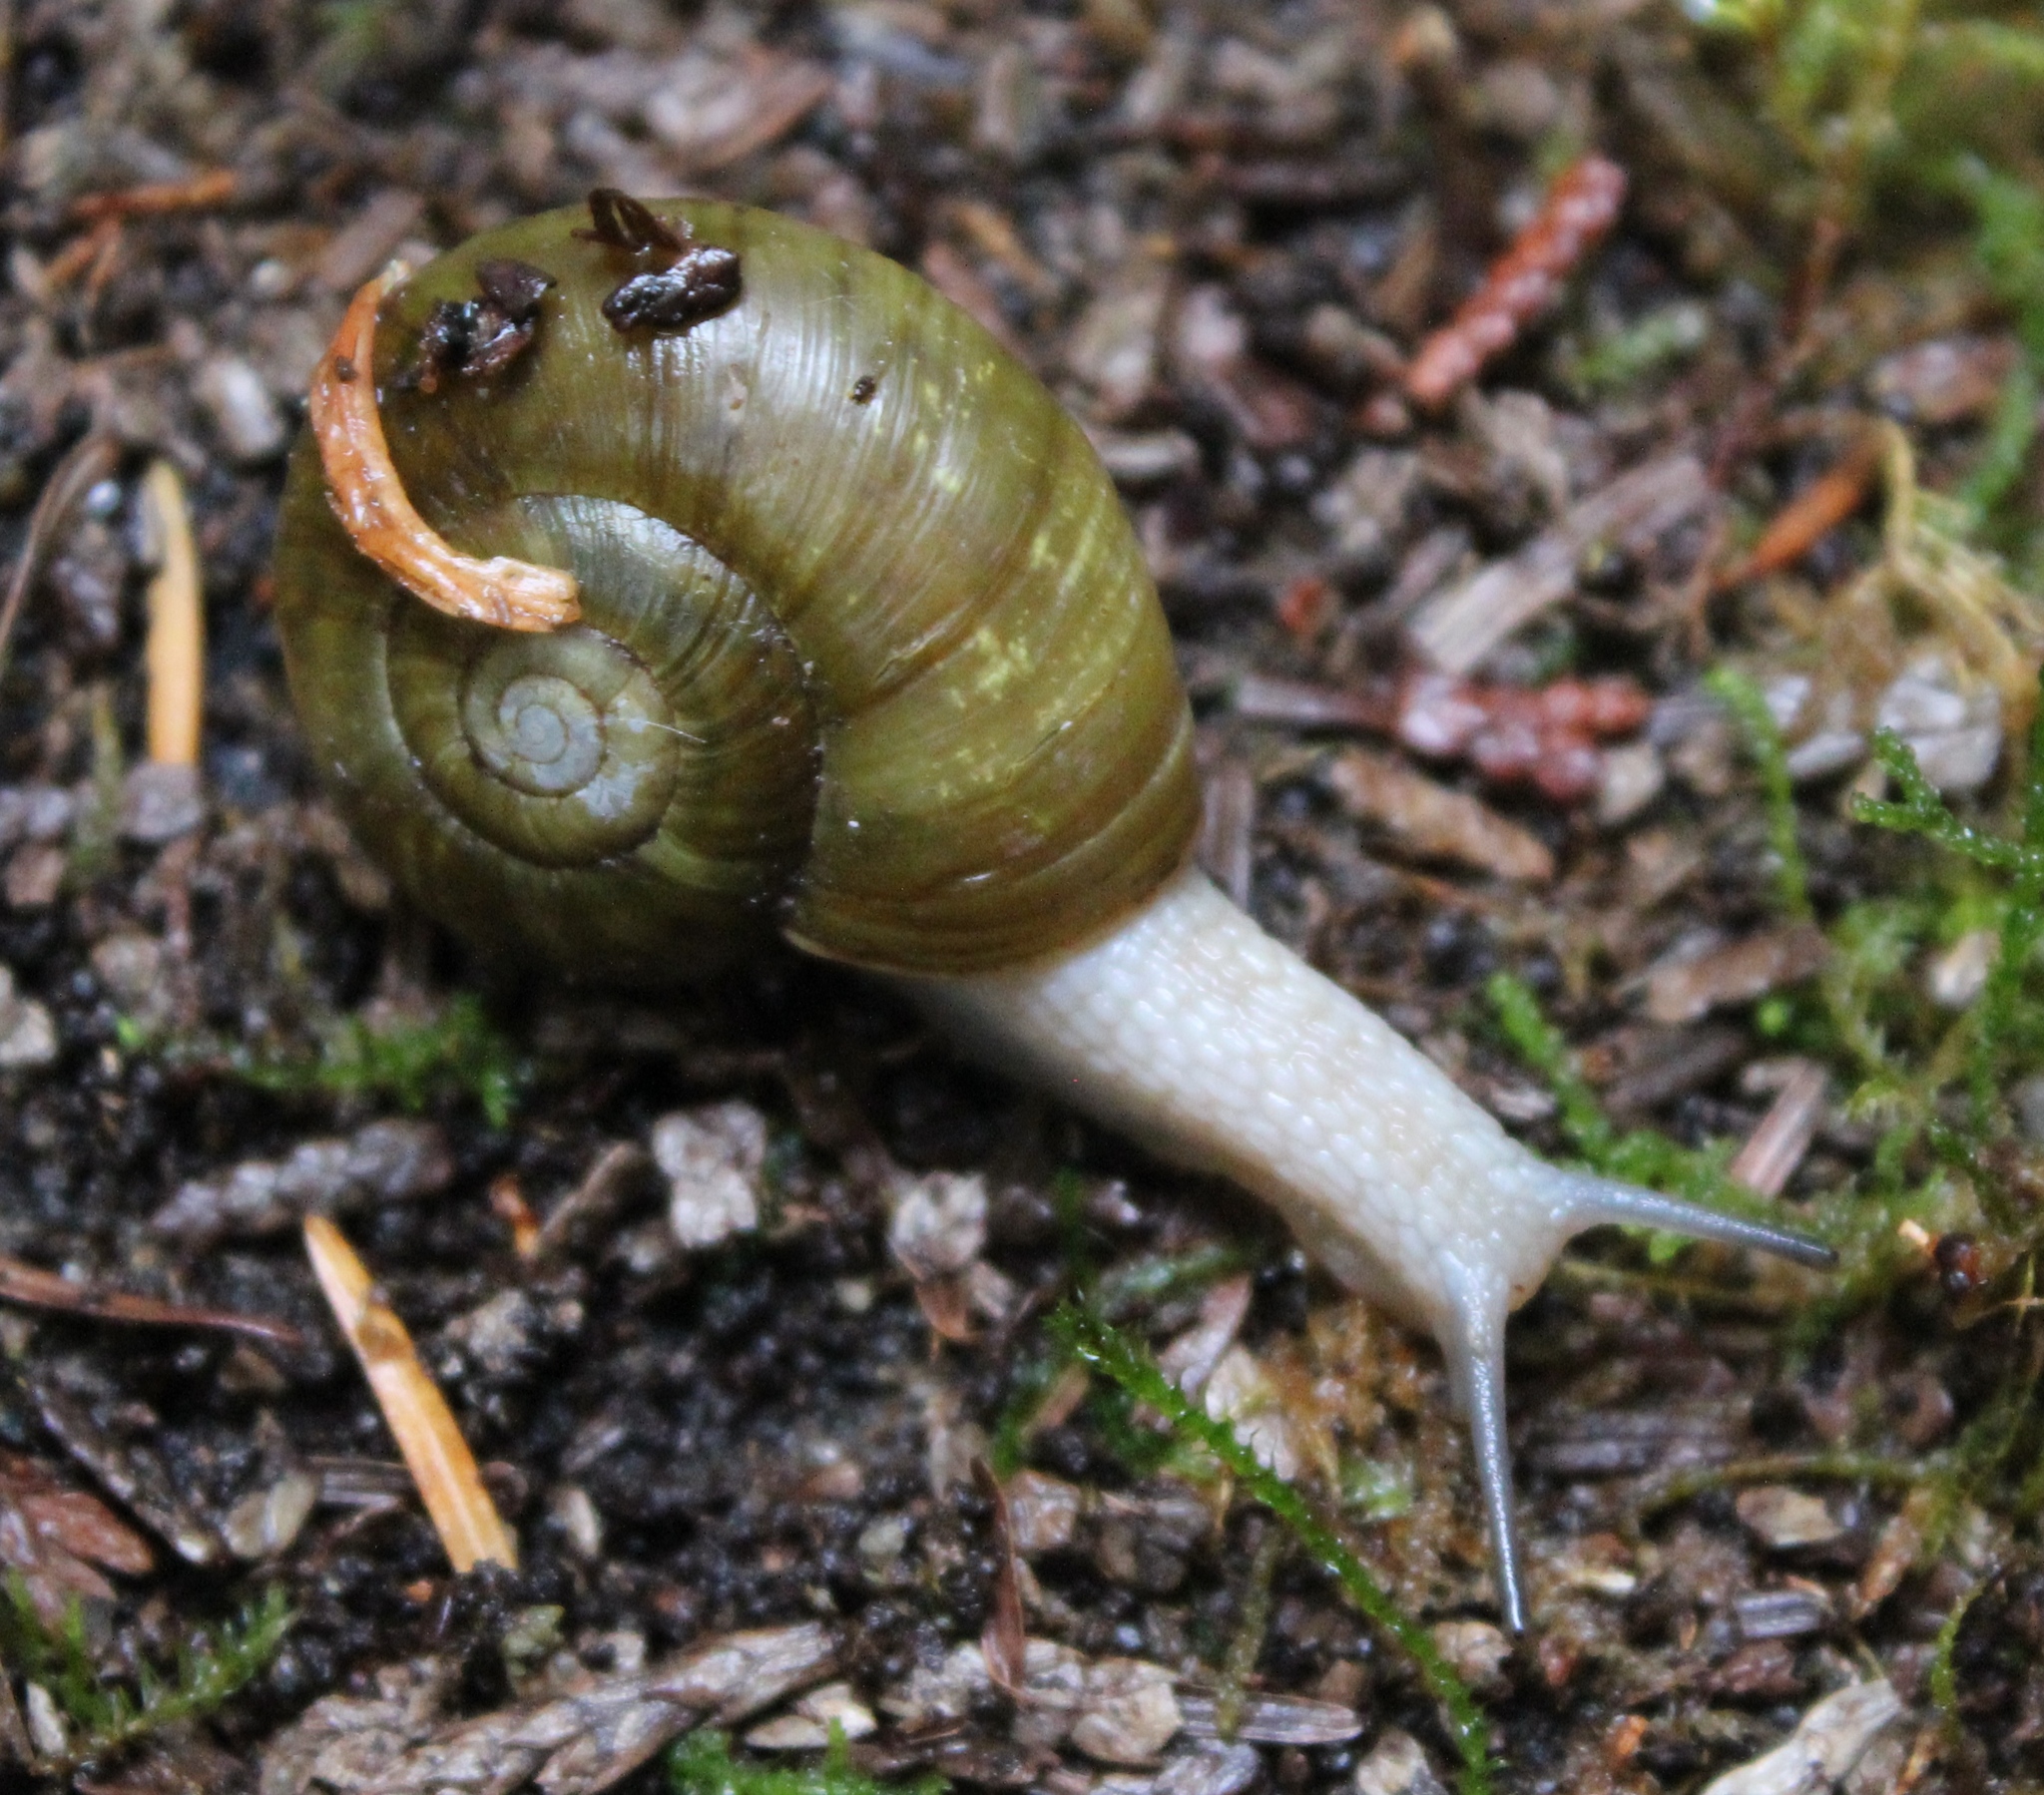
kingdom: Animalia
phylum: Mollusca
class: Gastropoda
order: Stylommatophora
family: Haplotrematidae
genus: Haplotrema
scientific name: Haplotrema vancouverense
